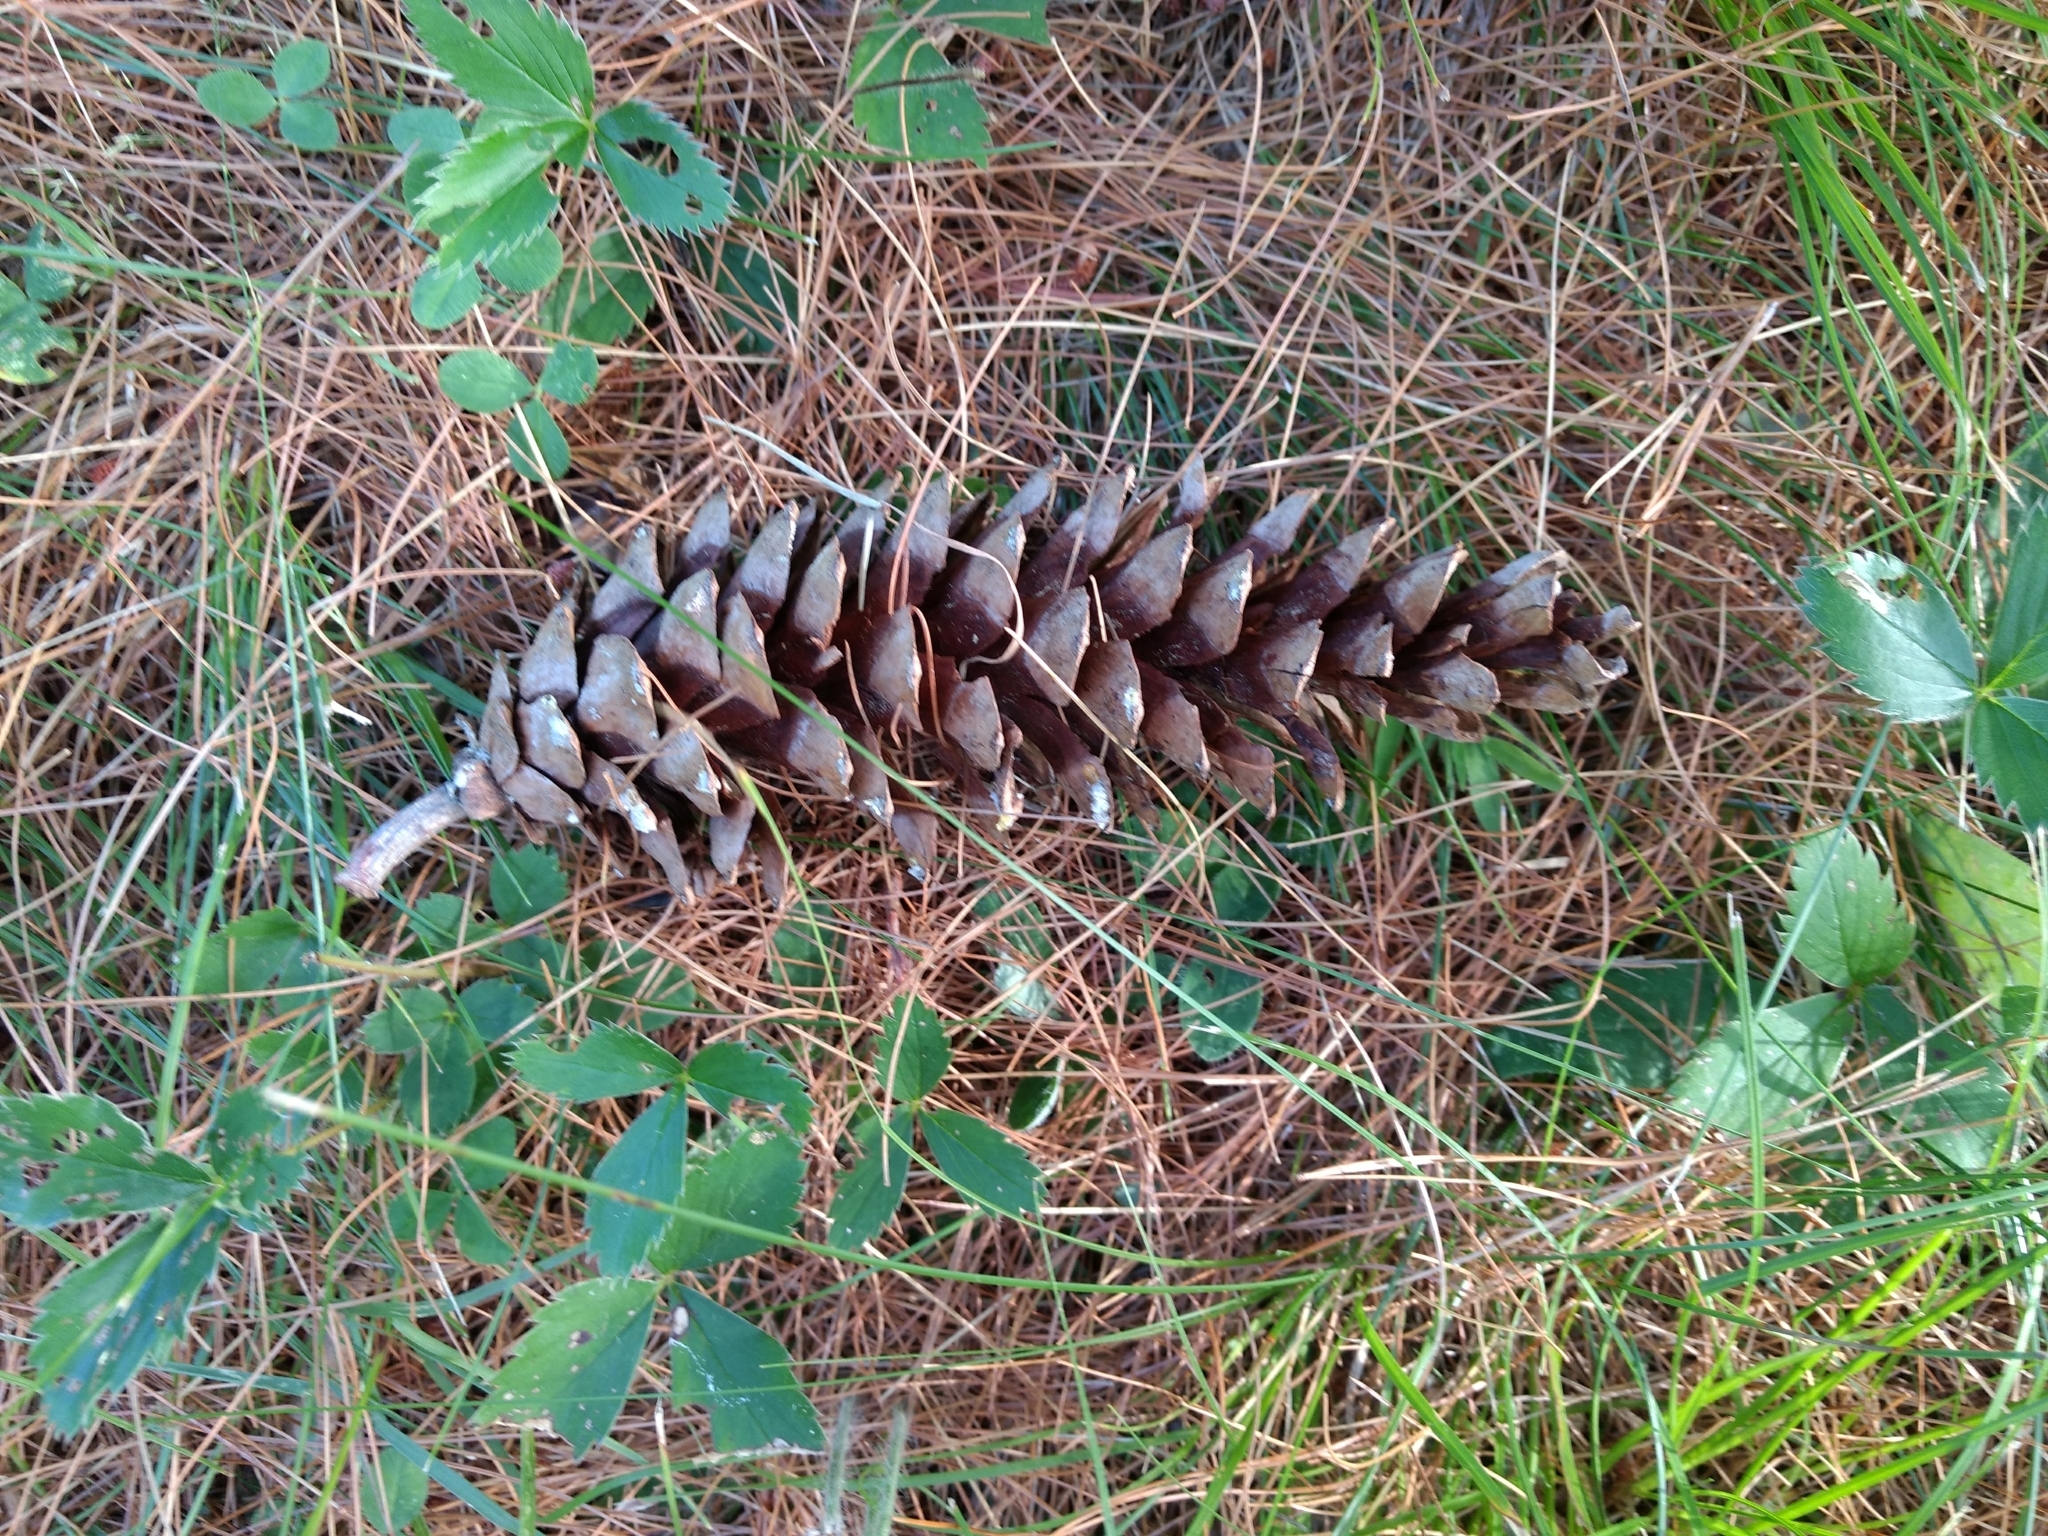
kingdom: Plantae
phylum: Tracheophyta
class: Pinopsida
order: Pinales
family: Pinaceae
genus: Pinus
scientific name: Pinus strobus
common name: Weymouth pine
